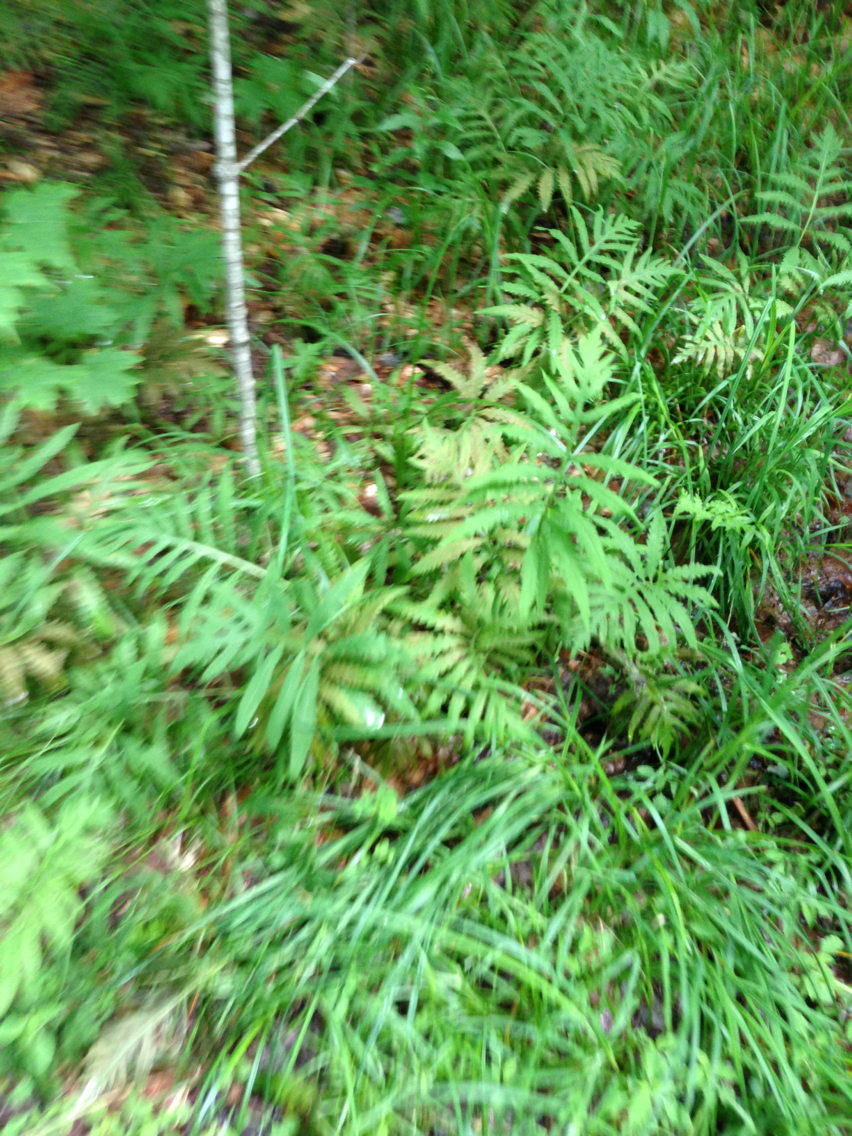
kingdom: Plantae
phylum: Tracheophyta
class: Polypodiopsida
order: Polypodiales
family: Onocleaceae
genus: Onoclea
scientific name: Onoclea sensibilis
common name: Sensitive fern
